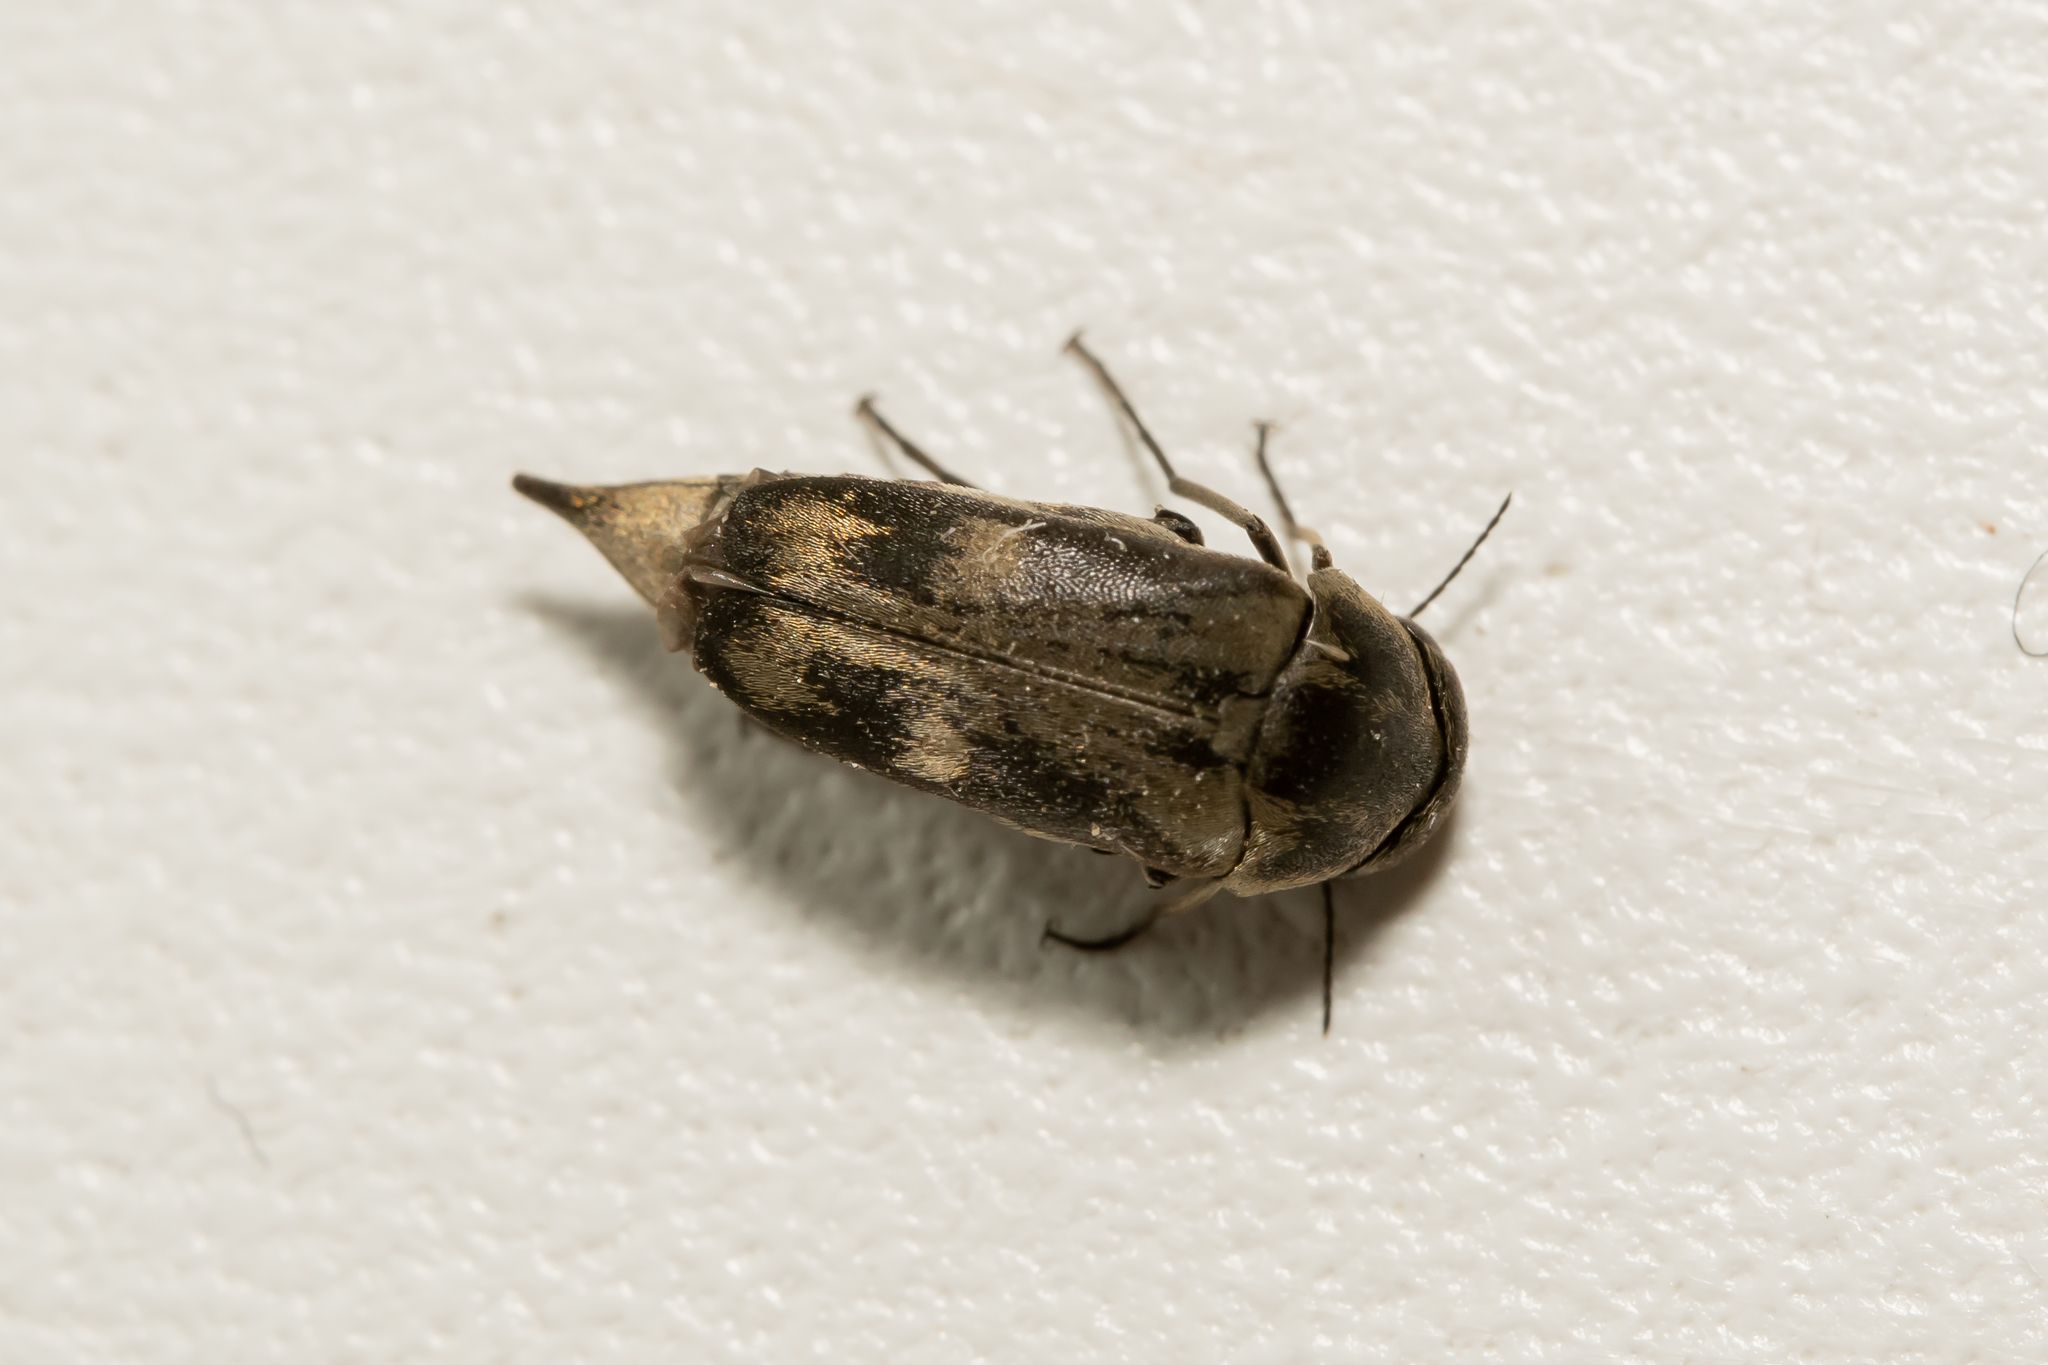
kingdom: Animalia
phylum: Arthropoda
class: Insecta
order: Coleoptera
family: Mordellidae
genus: Tomoxia
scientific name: Tomoxia bucephala
